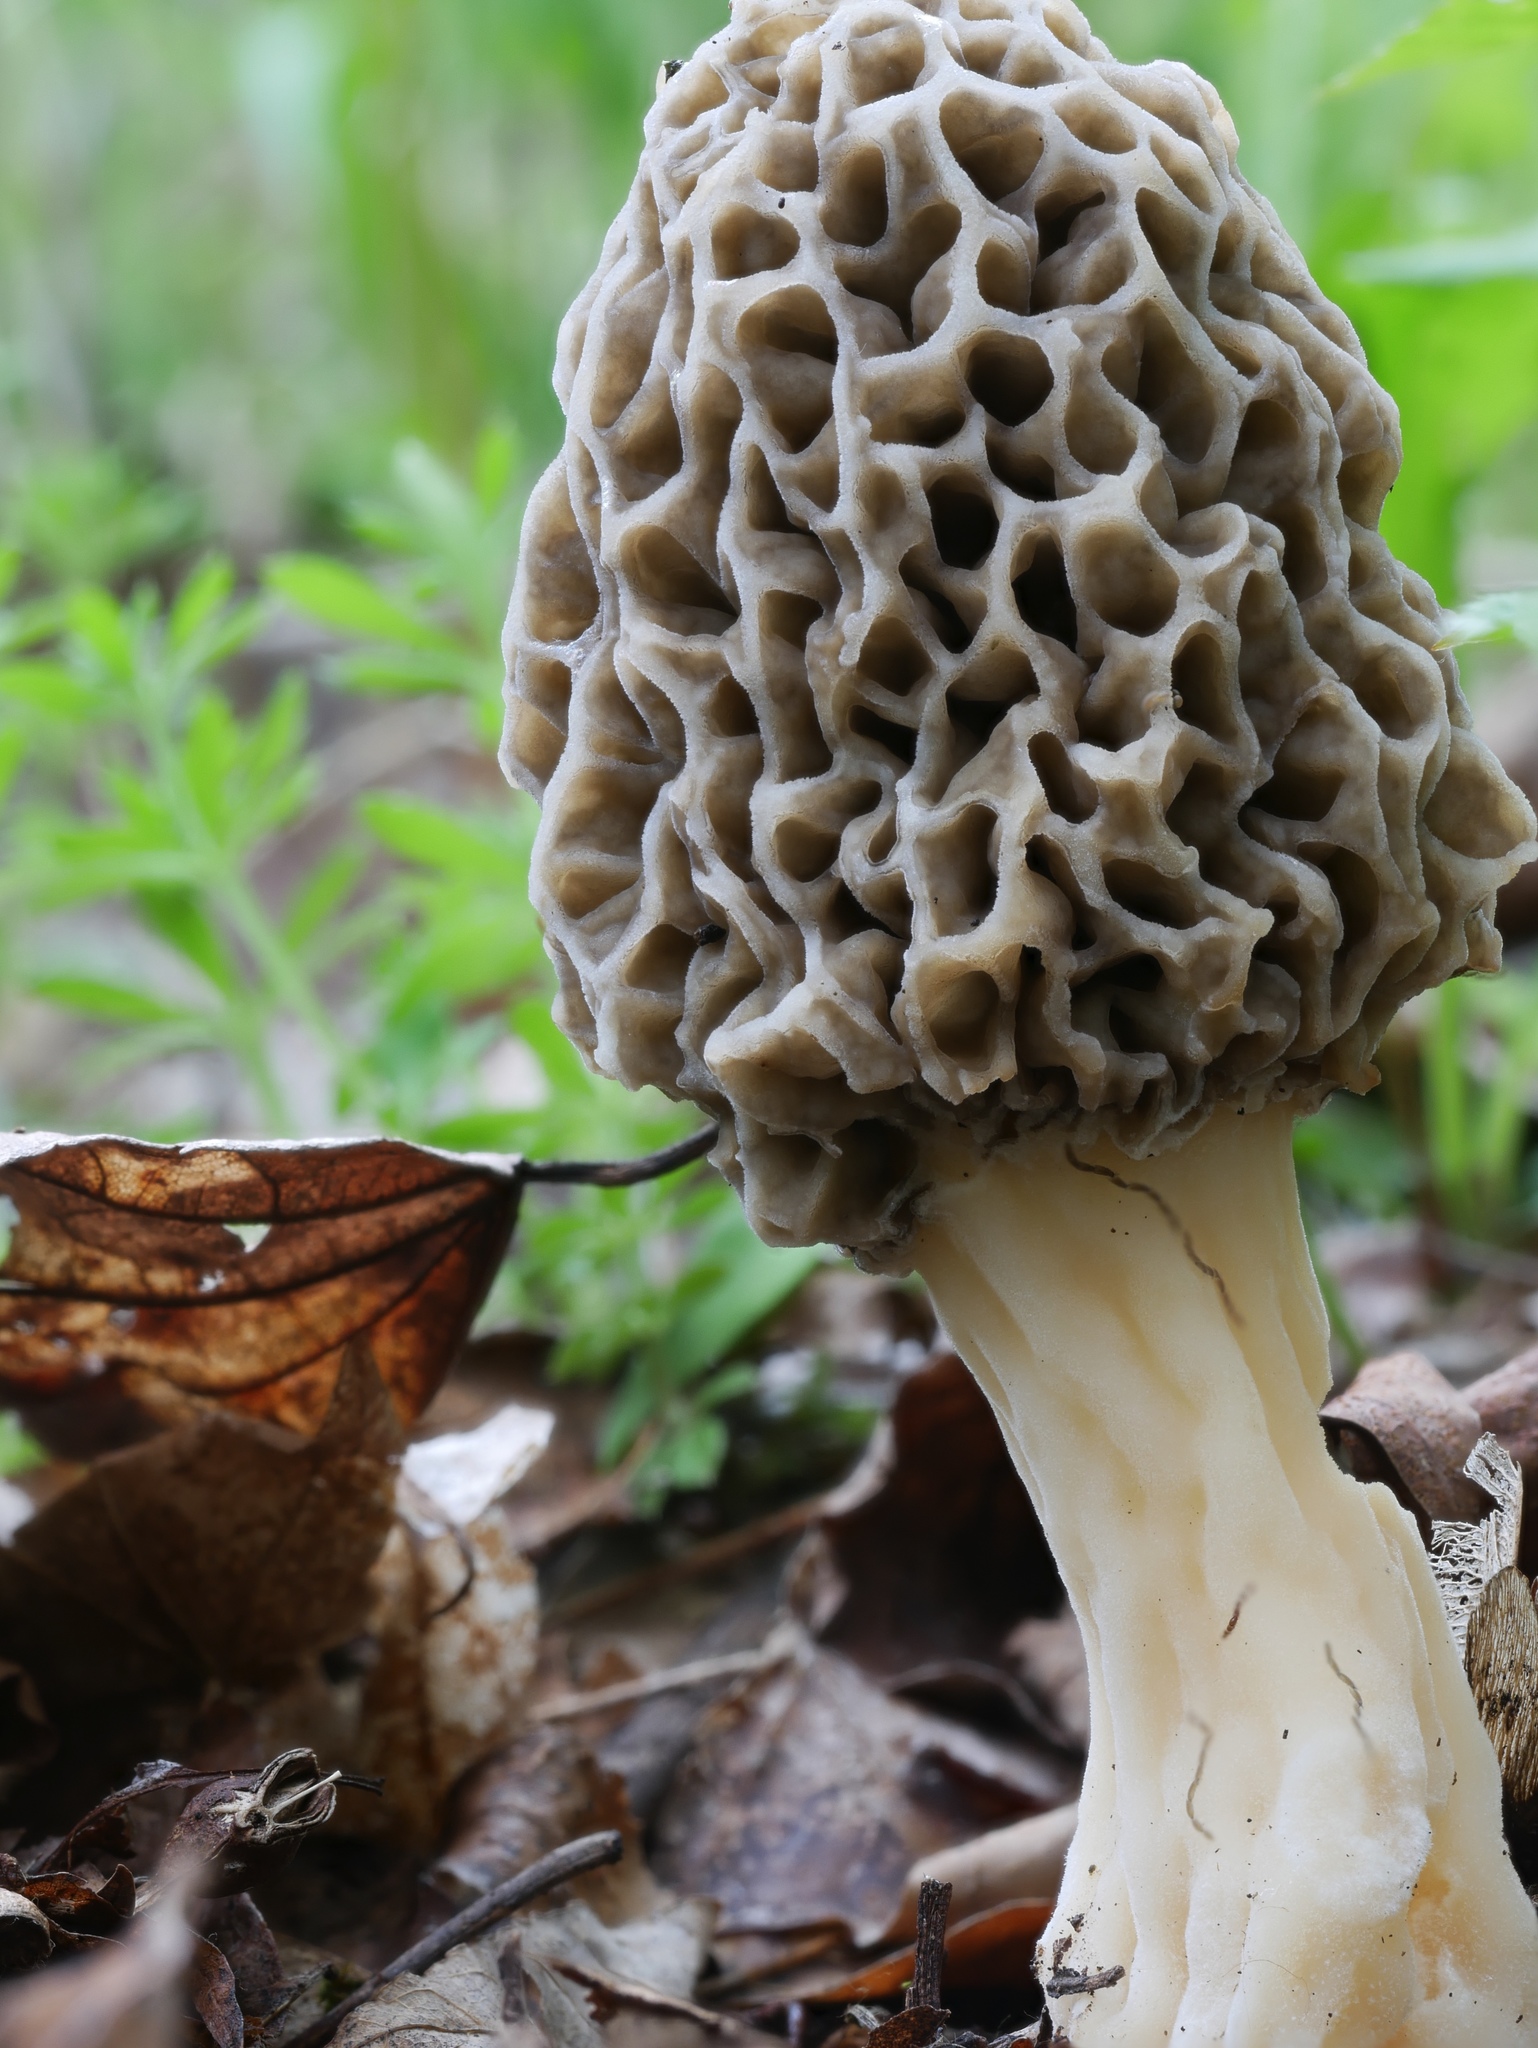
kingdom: Fungi
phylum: Ascomycota
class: Pezizomycetes
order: Pezizales
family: Morchellaceae
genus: Morchella
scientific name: Morchella americana
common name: White morel
